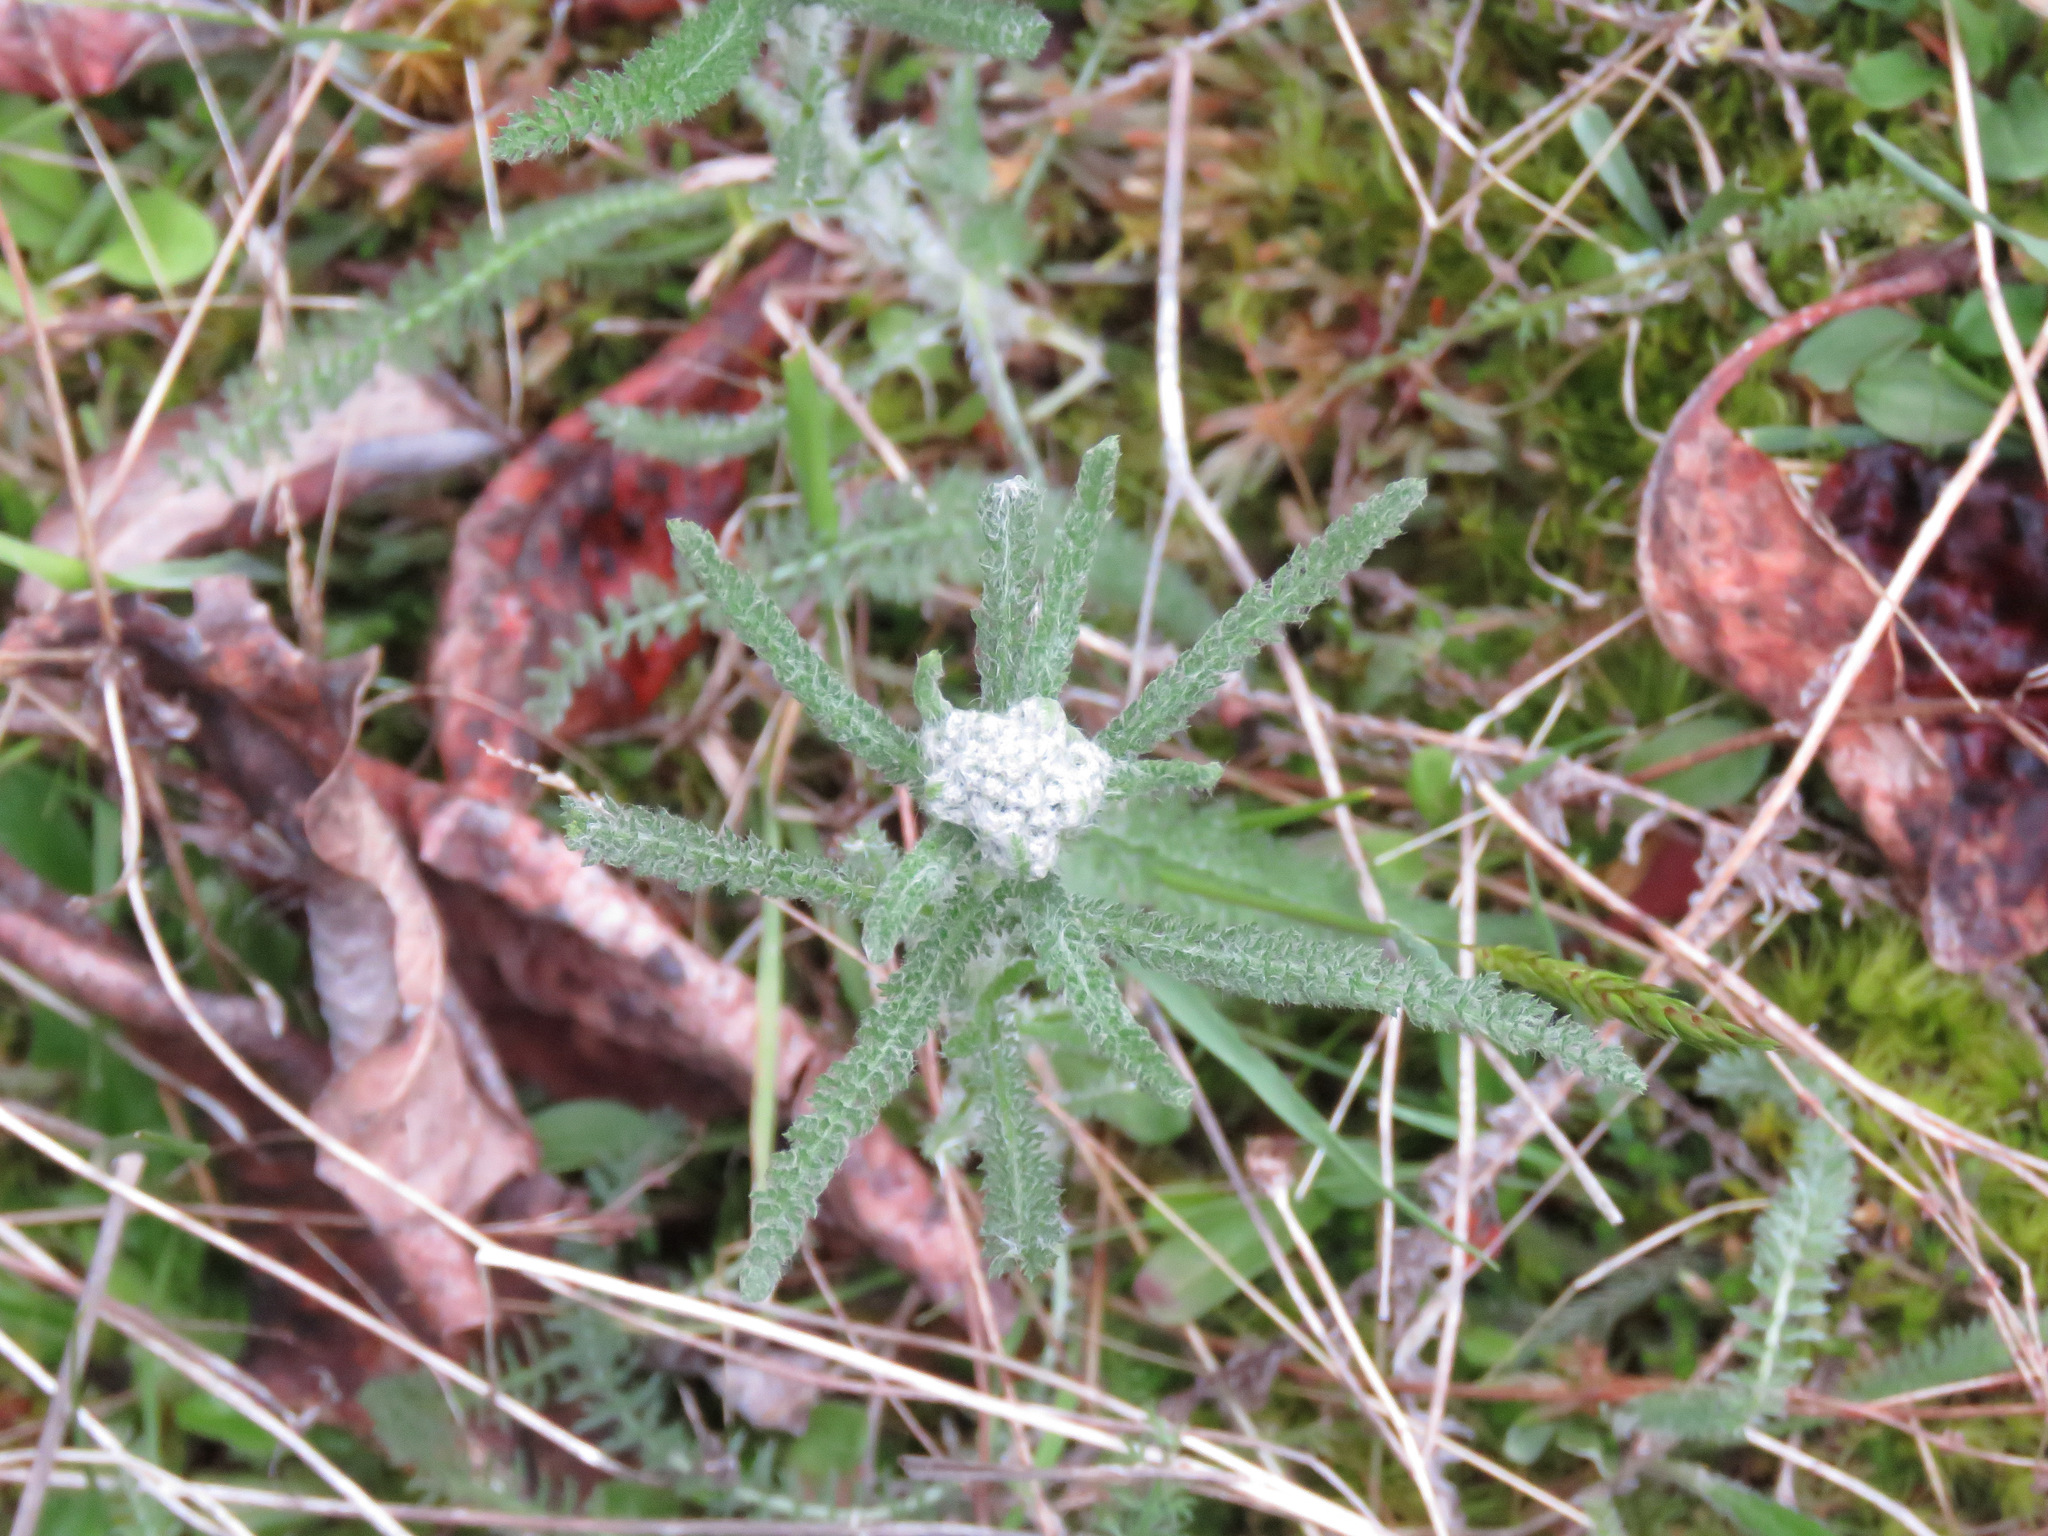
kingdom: Plantae
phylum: Tracheophyta
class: Magnoliopsida
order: Asterales
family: Asteraceae
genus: Achillea
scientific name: Achillea millefolium
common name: Yarrow
